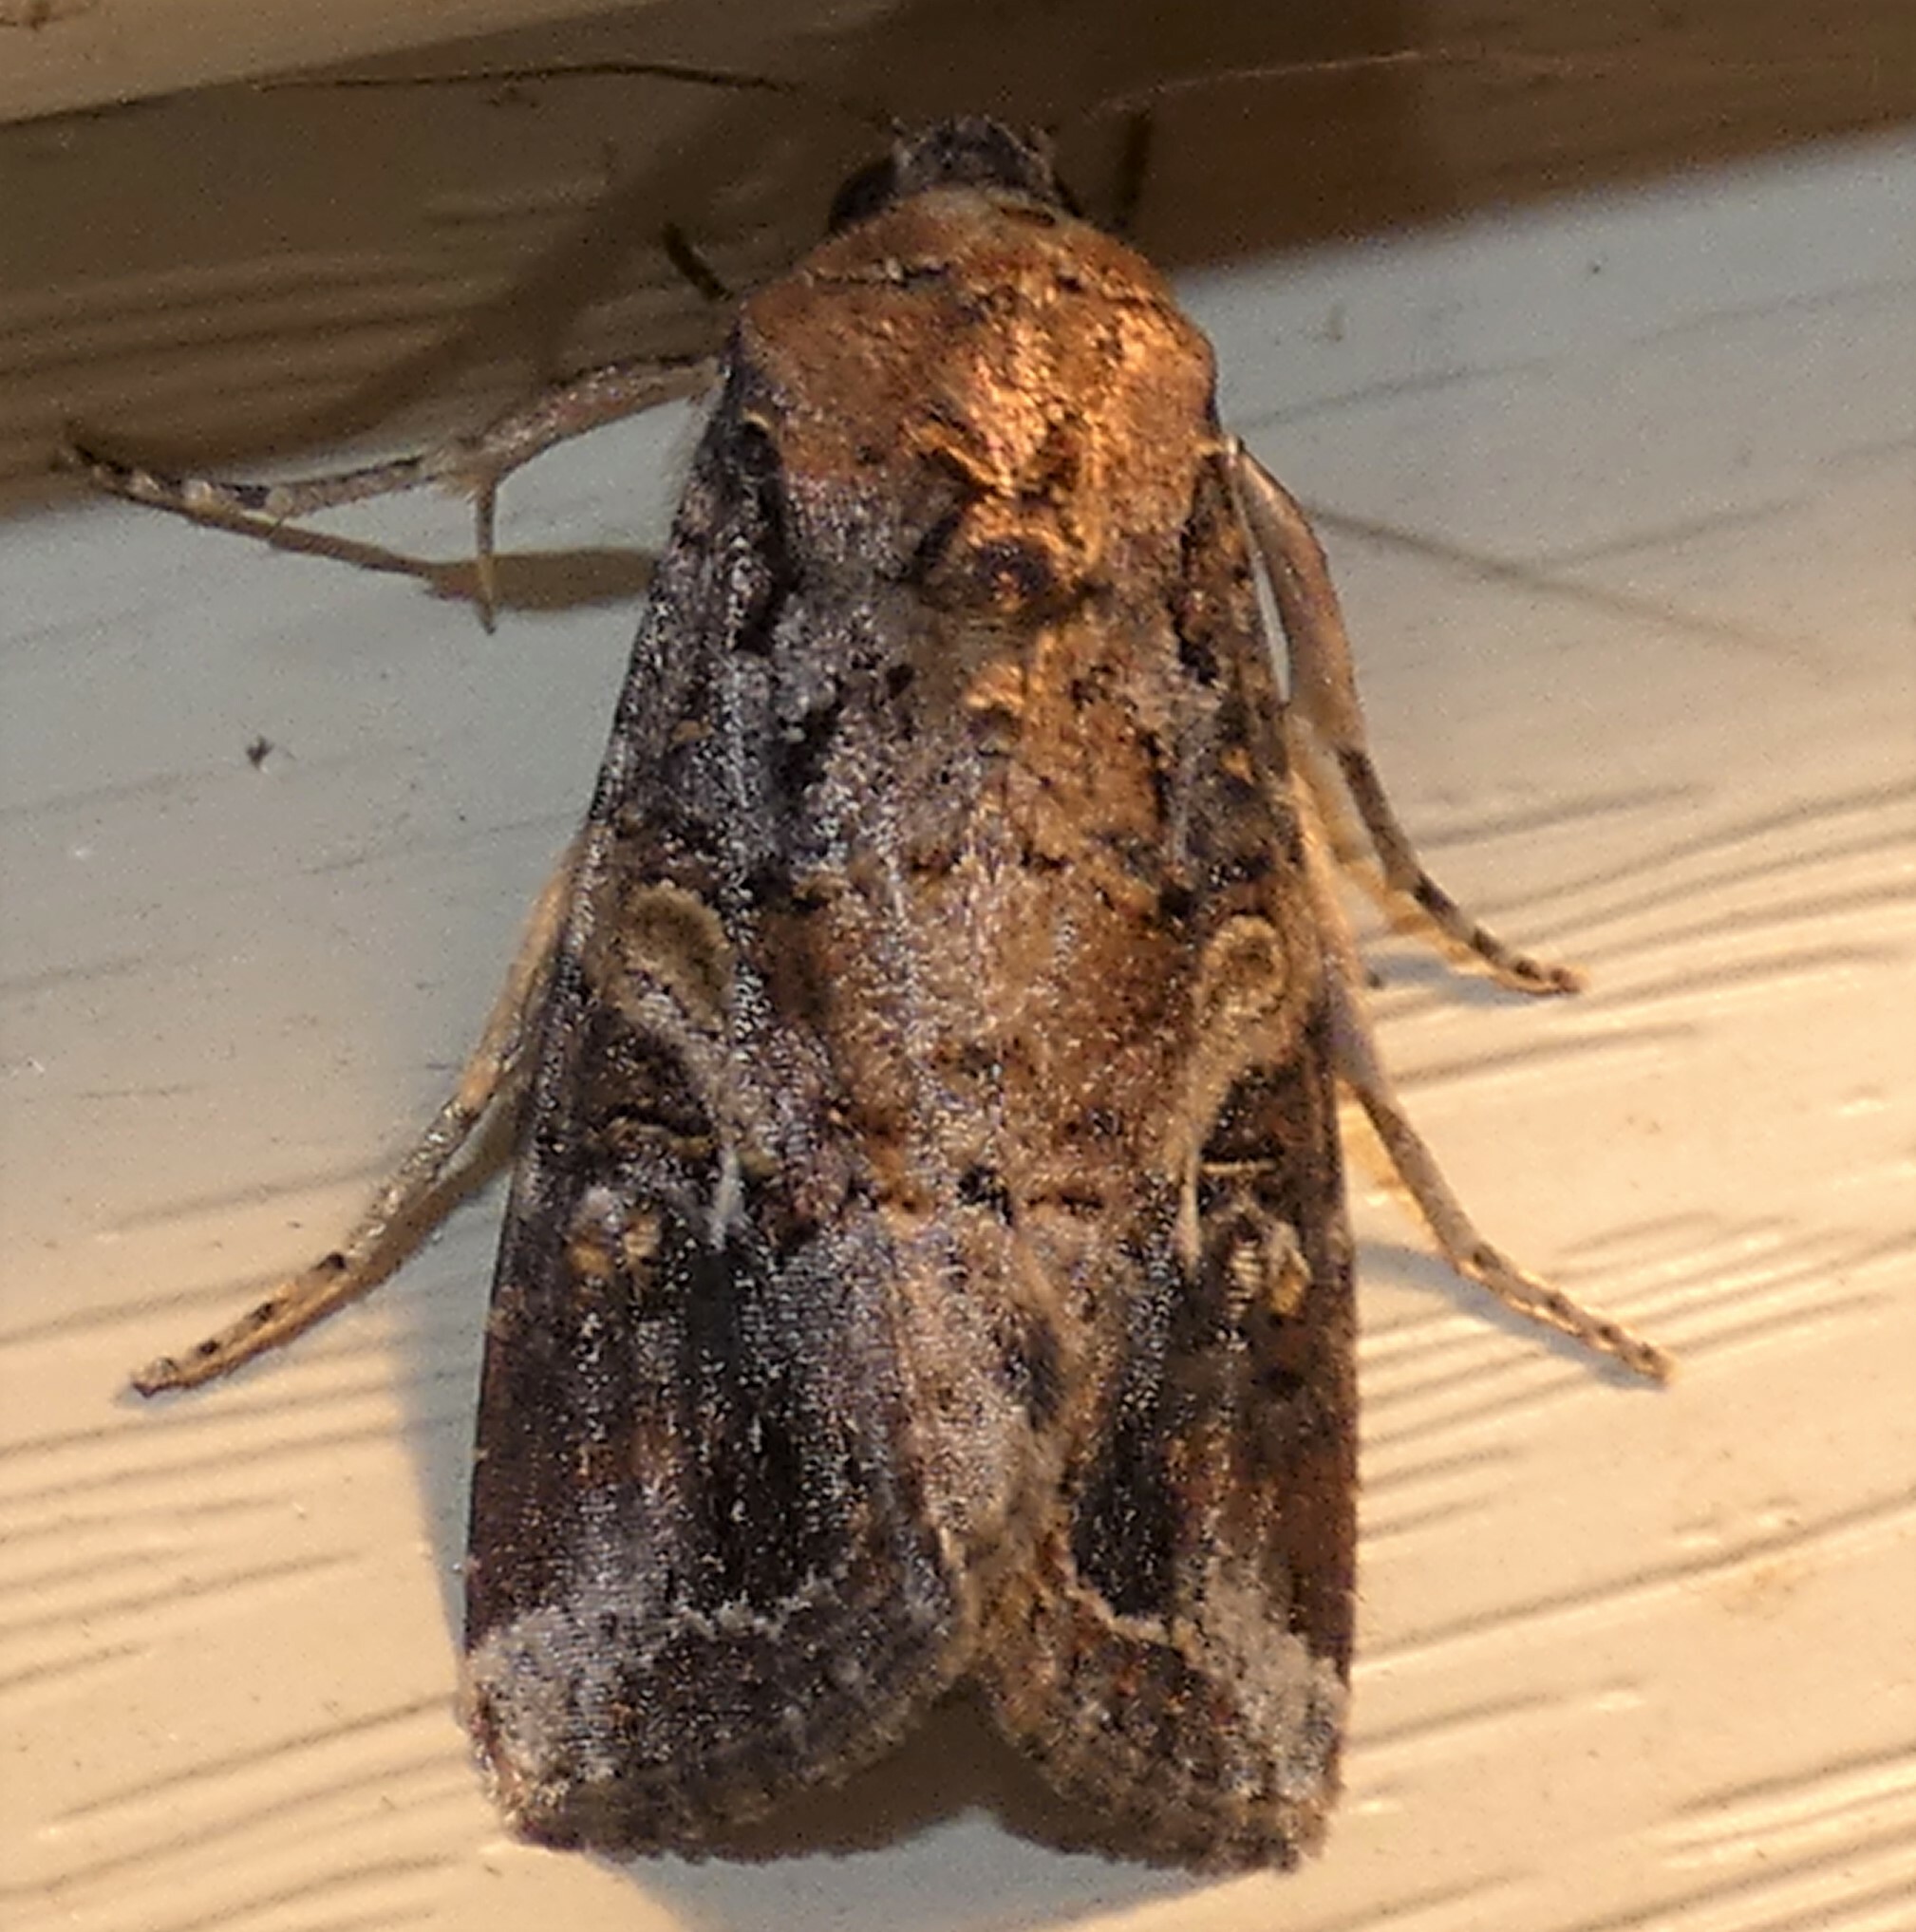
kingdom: Animalia
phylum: Arthropoda
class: Insecta
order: Lepidoptera
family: Noctuidae
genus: Spodoptera
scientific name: Spodoptera frugiperda
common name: Fall armyworm
